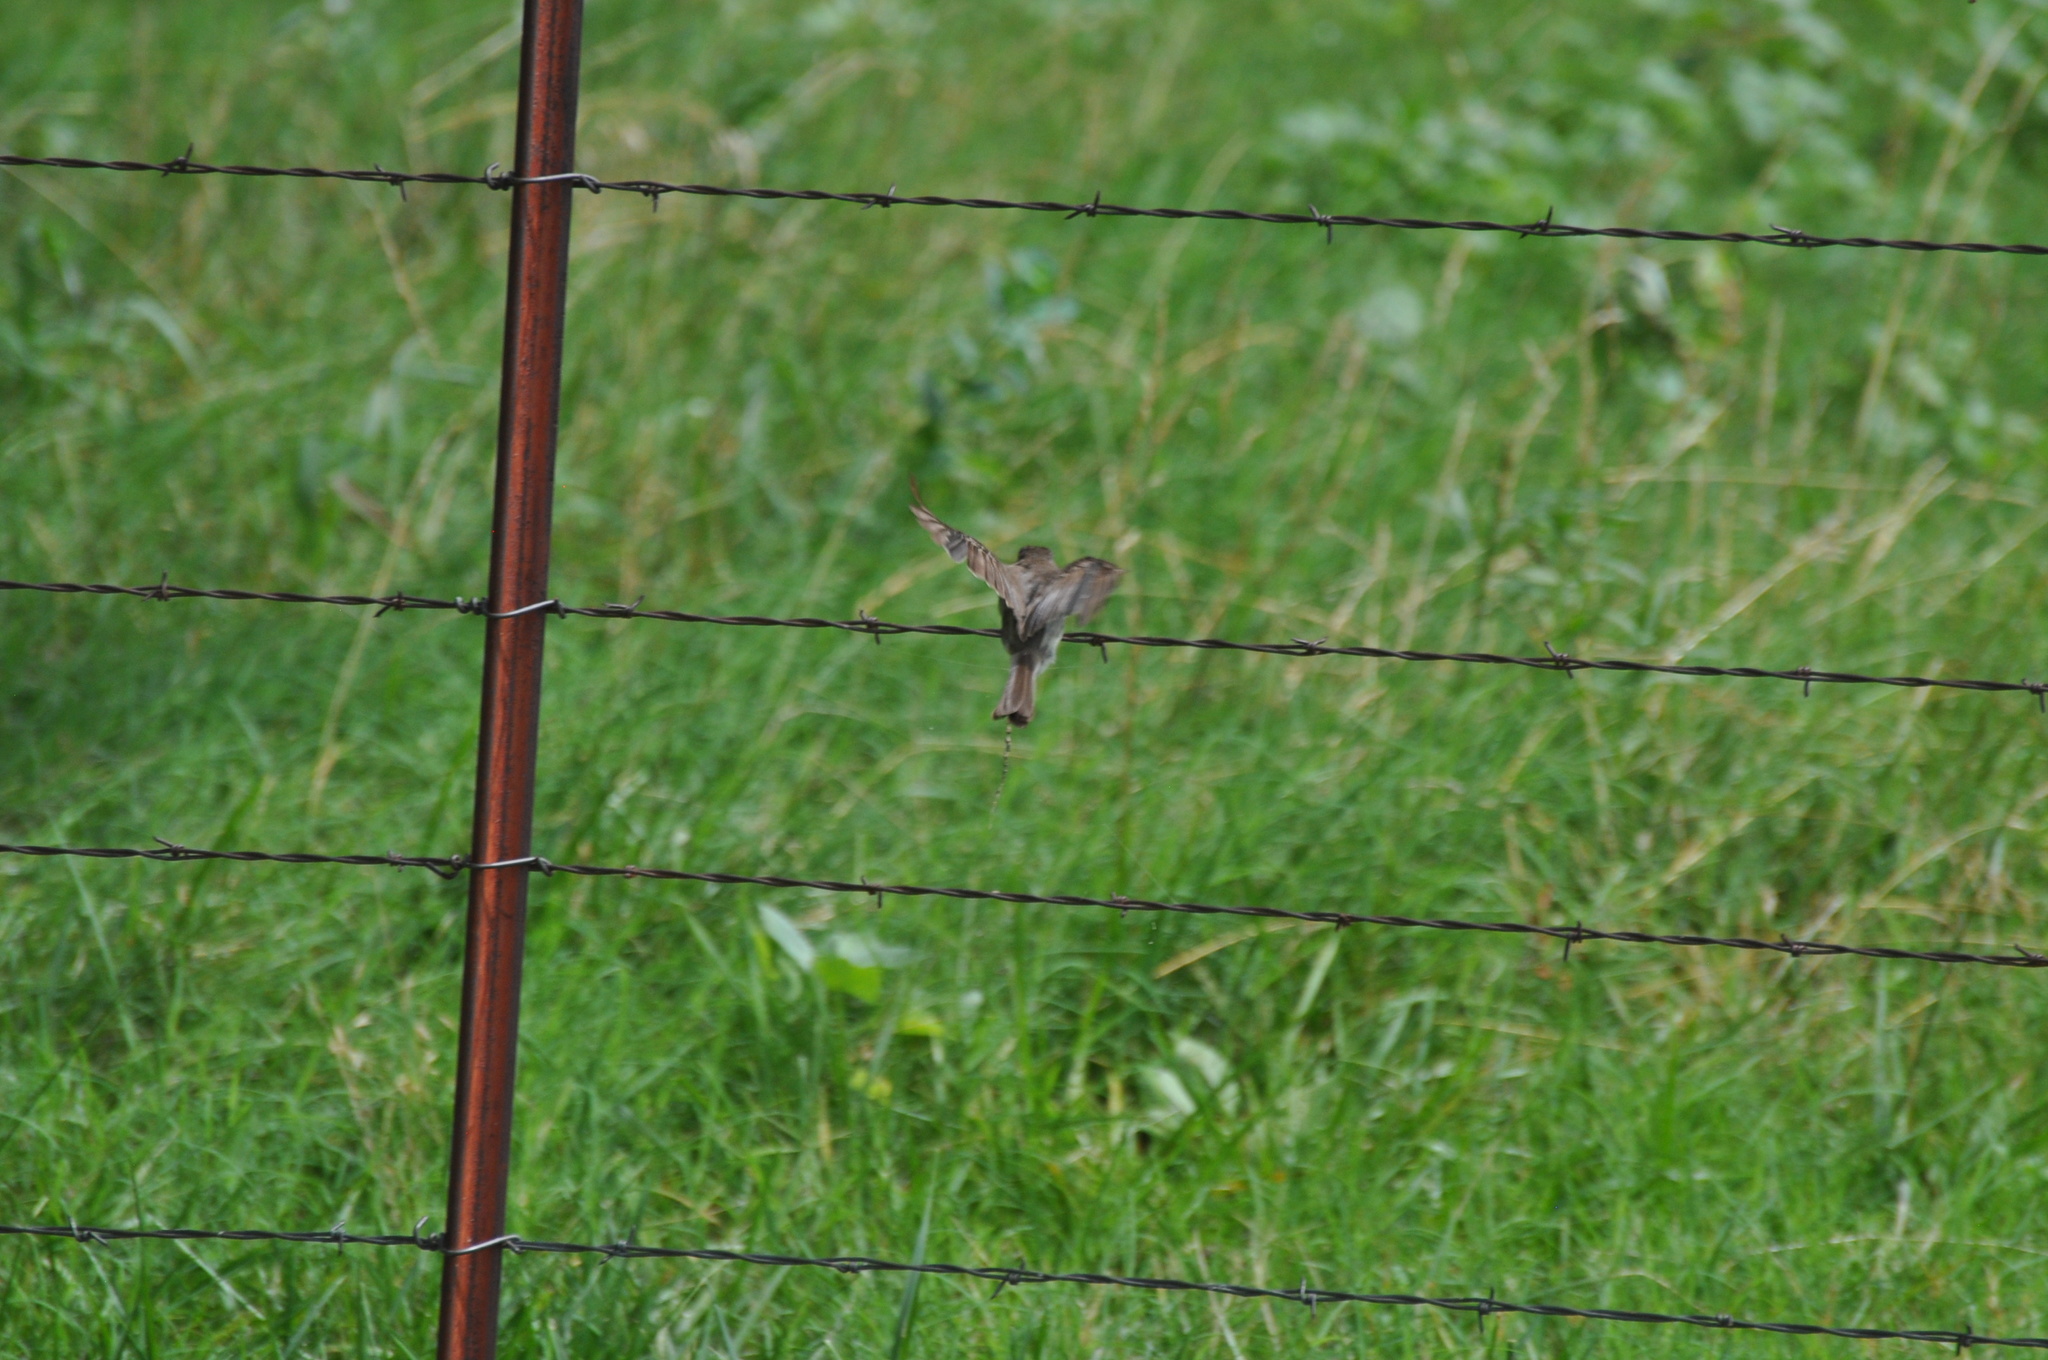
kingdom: Animalia
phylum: Chordata
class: Aves
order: Passeriformes
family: Tyrannidae
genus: Sayornis
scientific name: Sayornis phoebe
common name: Eastern phoebe
